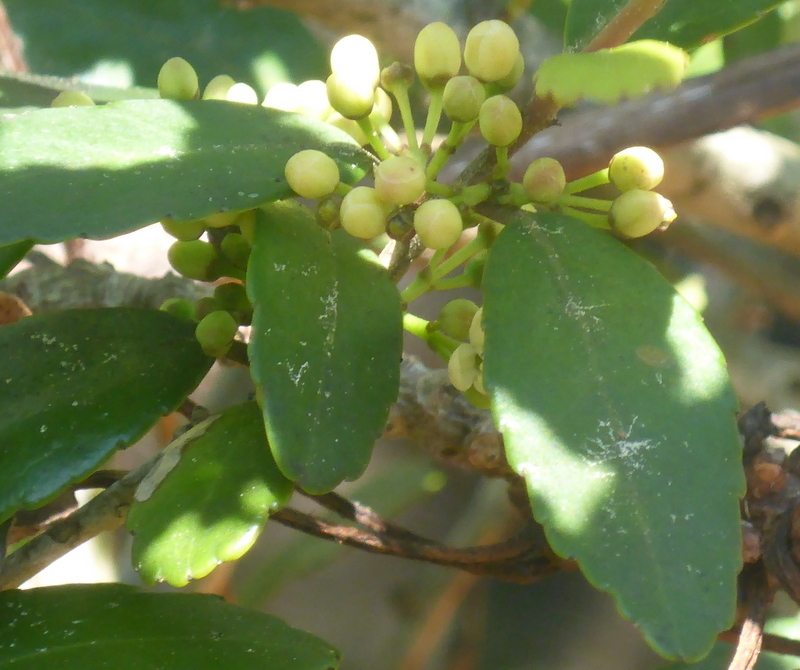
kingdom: Plantae
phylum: Tracheophyta
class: Magnoliopsida
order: Aquifoliales
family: Aquifoliaceae
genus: Ilex
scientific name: Ilex vomitoria
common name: Yaupon holly
